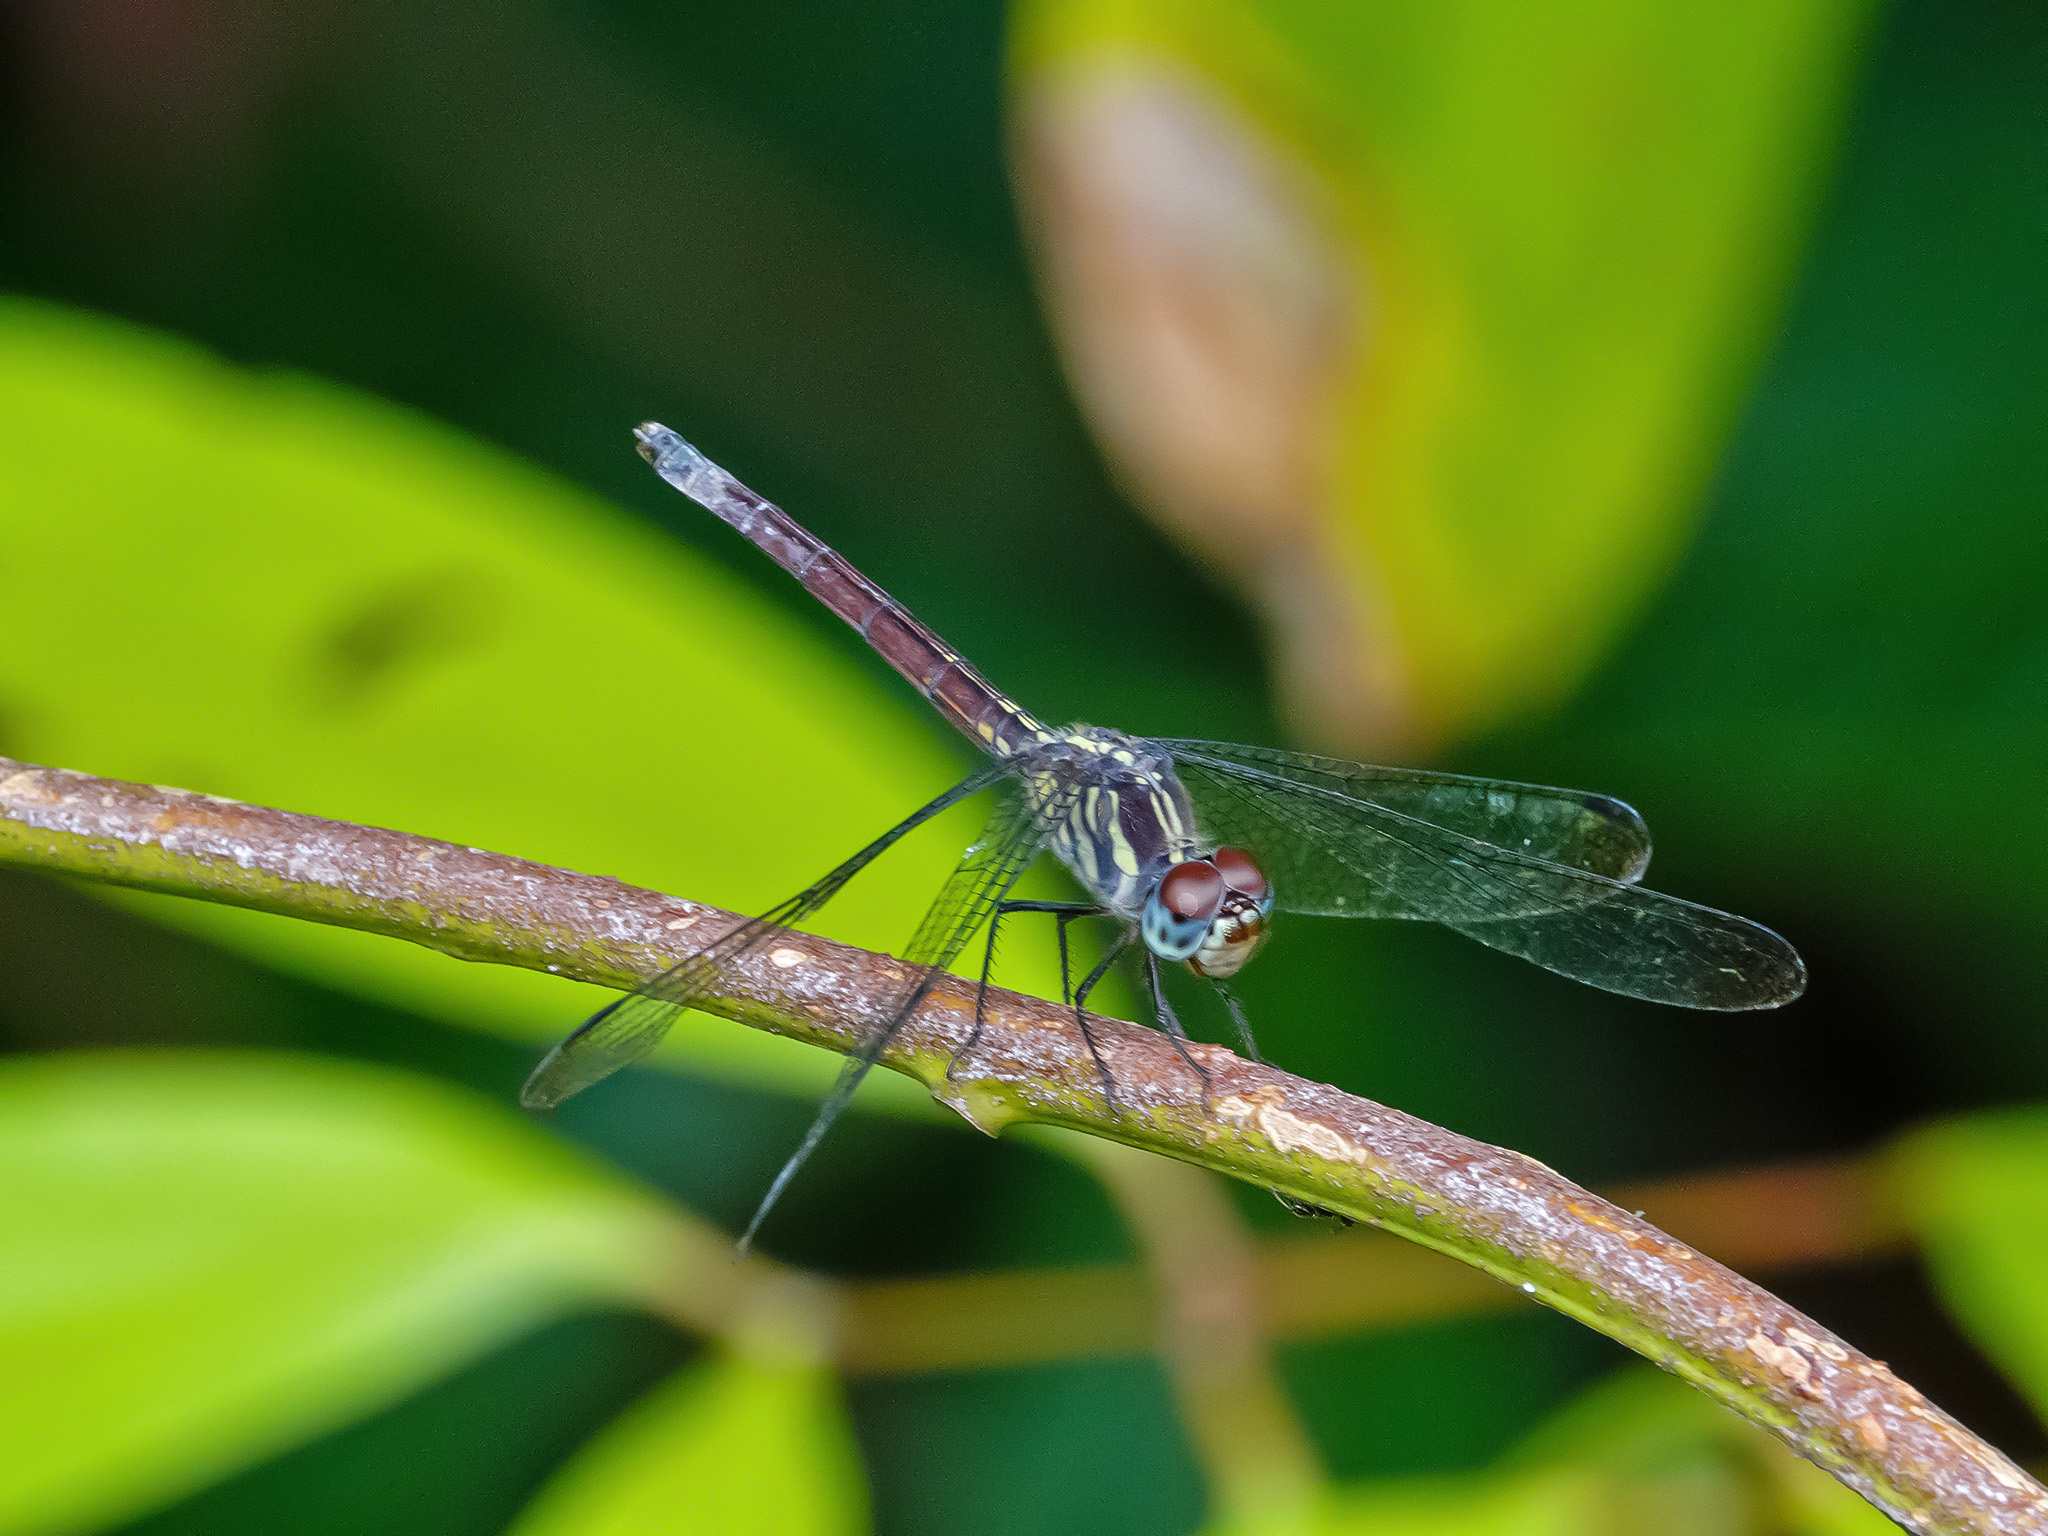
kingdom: Animalia
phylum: Arthropoda
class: Insecta
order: Odonata
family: Libellulidae
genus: Lathrecista
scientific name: Lathrecista asiatica
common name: Scarlet grenadier
